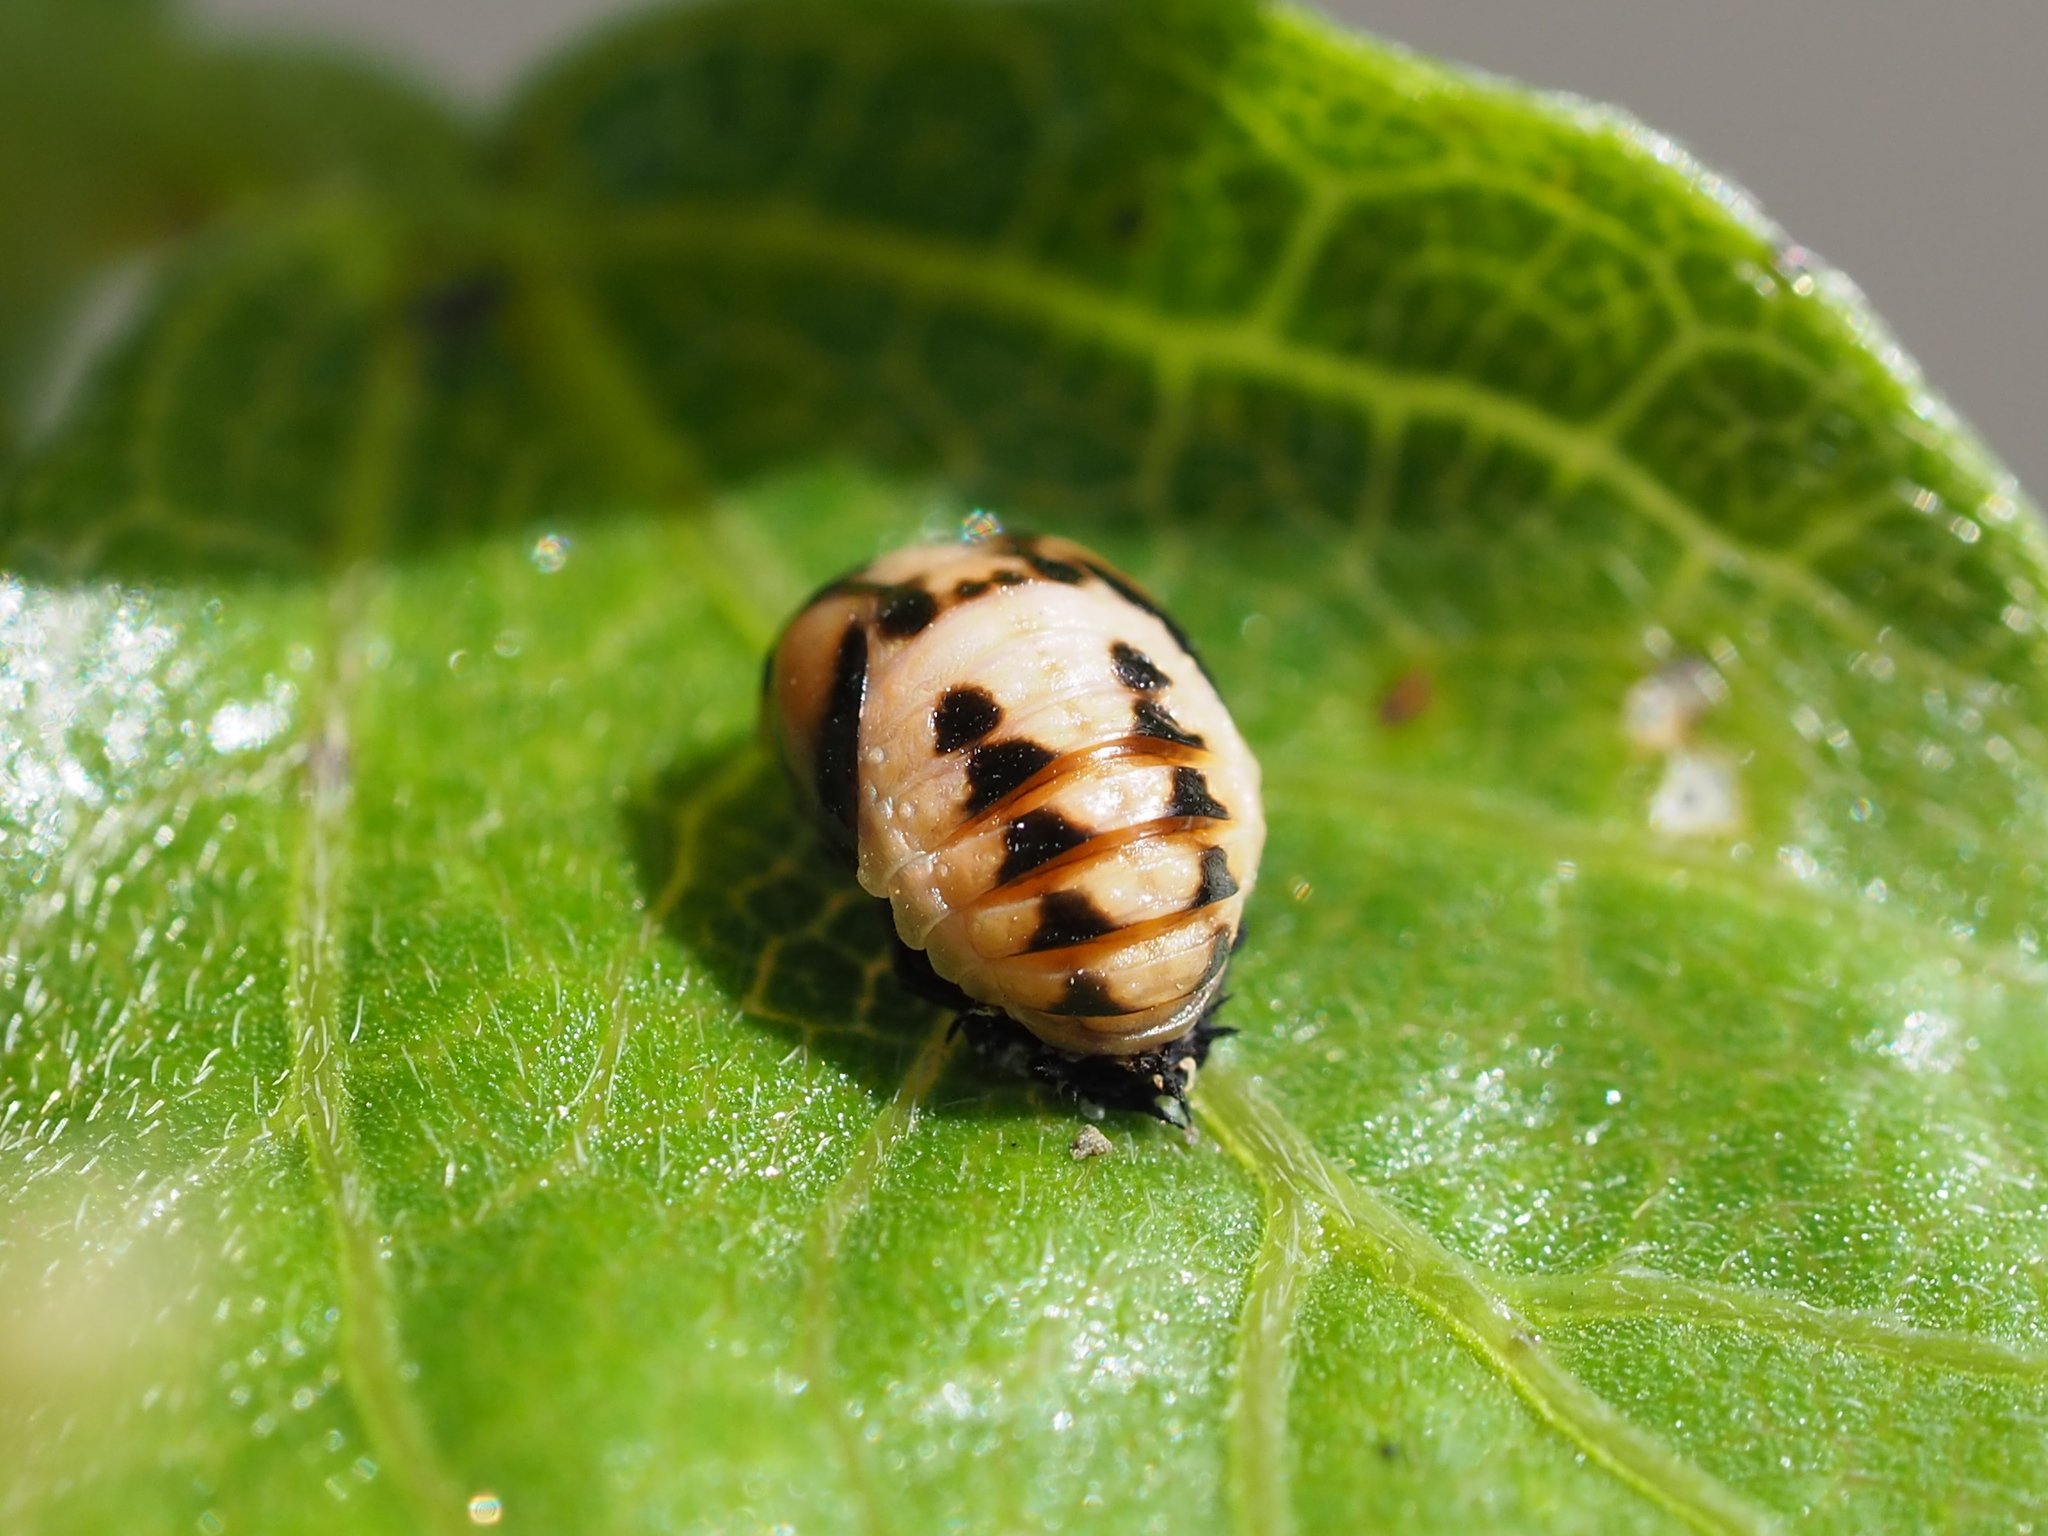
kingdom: Animalia
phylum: Arthropoda
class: Insecta
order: Coleoptera
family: Coccinellidae
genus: Cheilomenes
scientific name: Cheilomenes sexmaculata
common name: Ladybird beetle
